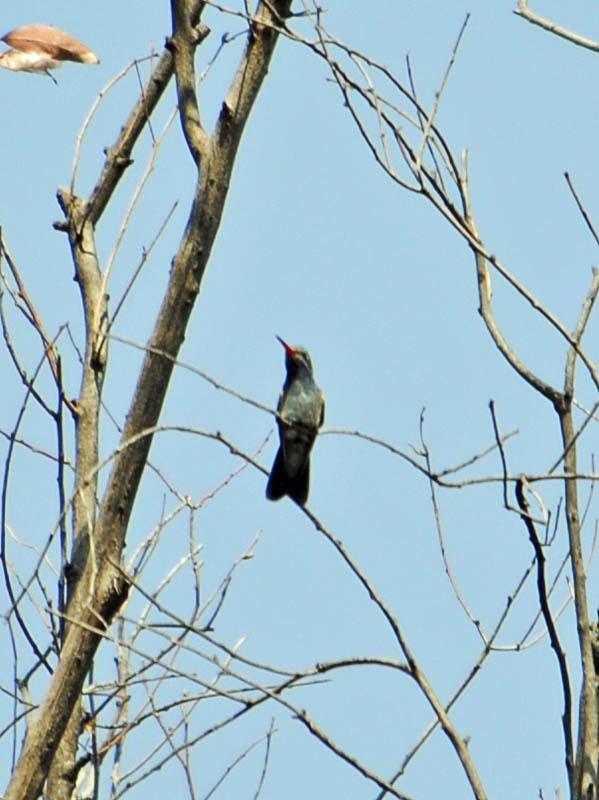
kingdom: Animalia
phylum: Chordata
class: Aves
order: Apodiformes
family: Trochilidae
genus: Cynanthus
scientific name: Cynanthus latirostris
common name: Broad-billed hummingbird
